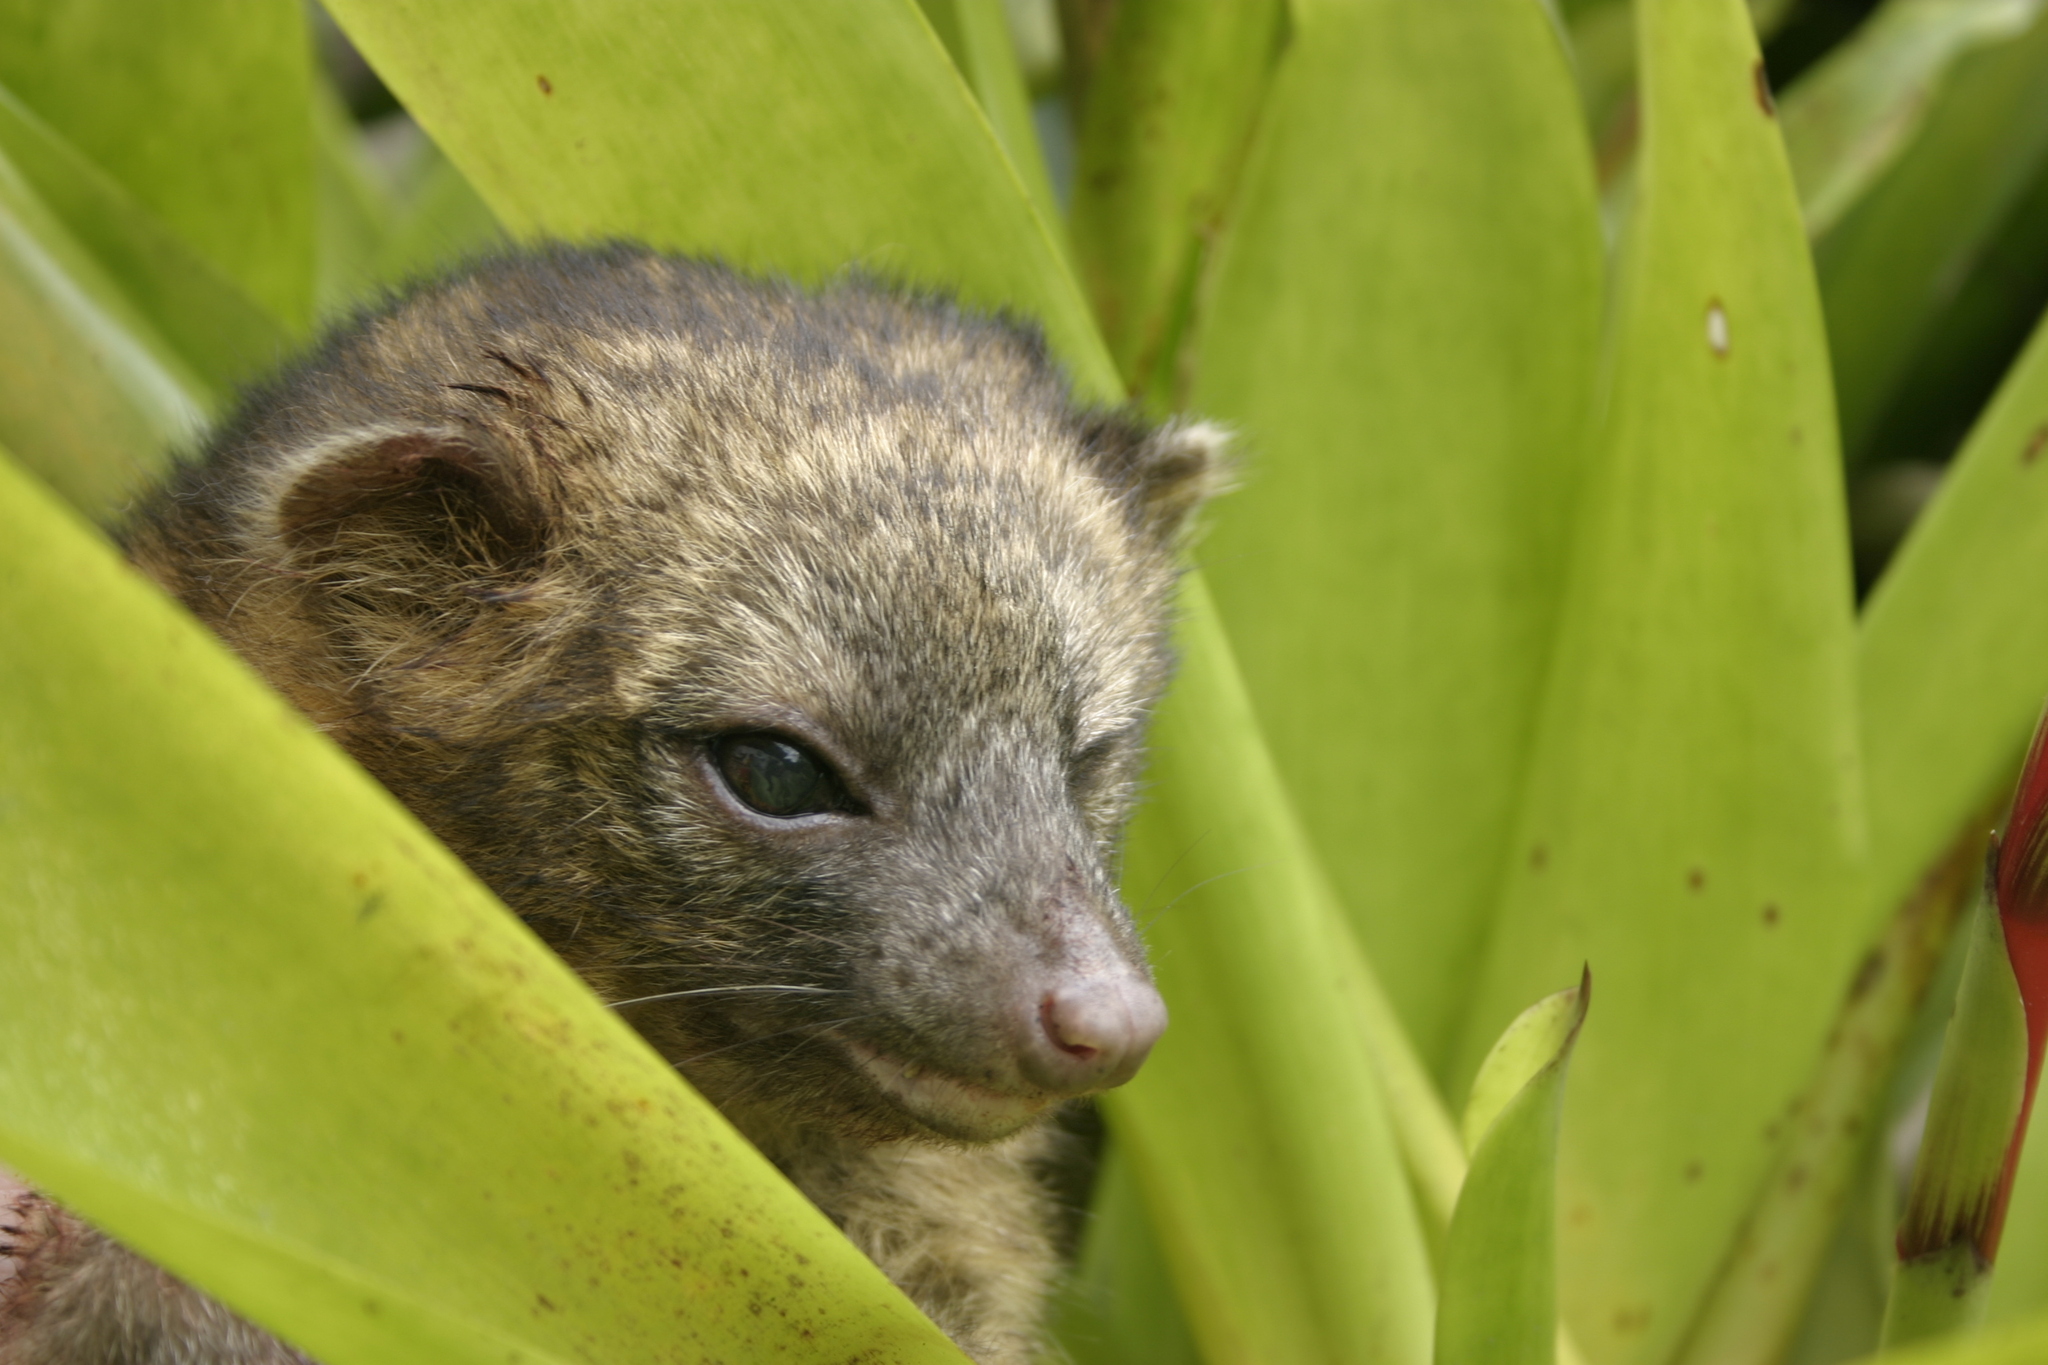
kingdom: Animalia
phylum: Chordata
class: Mammalia
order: Carnivora
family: Procyonidae
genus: Bassaricyon
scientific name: Bassaricyon neblina
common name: Olinguito
